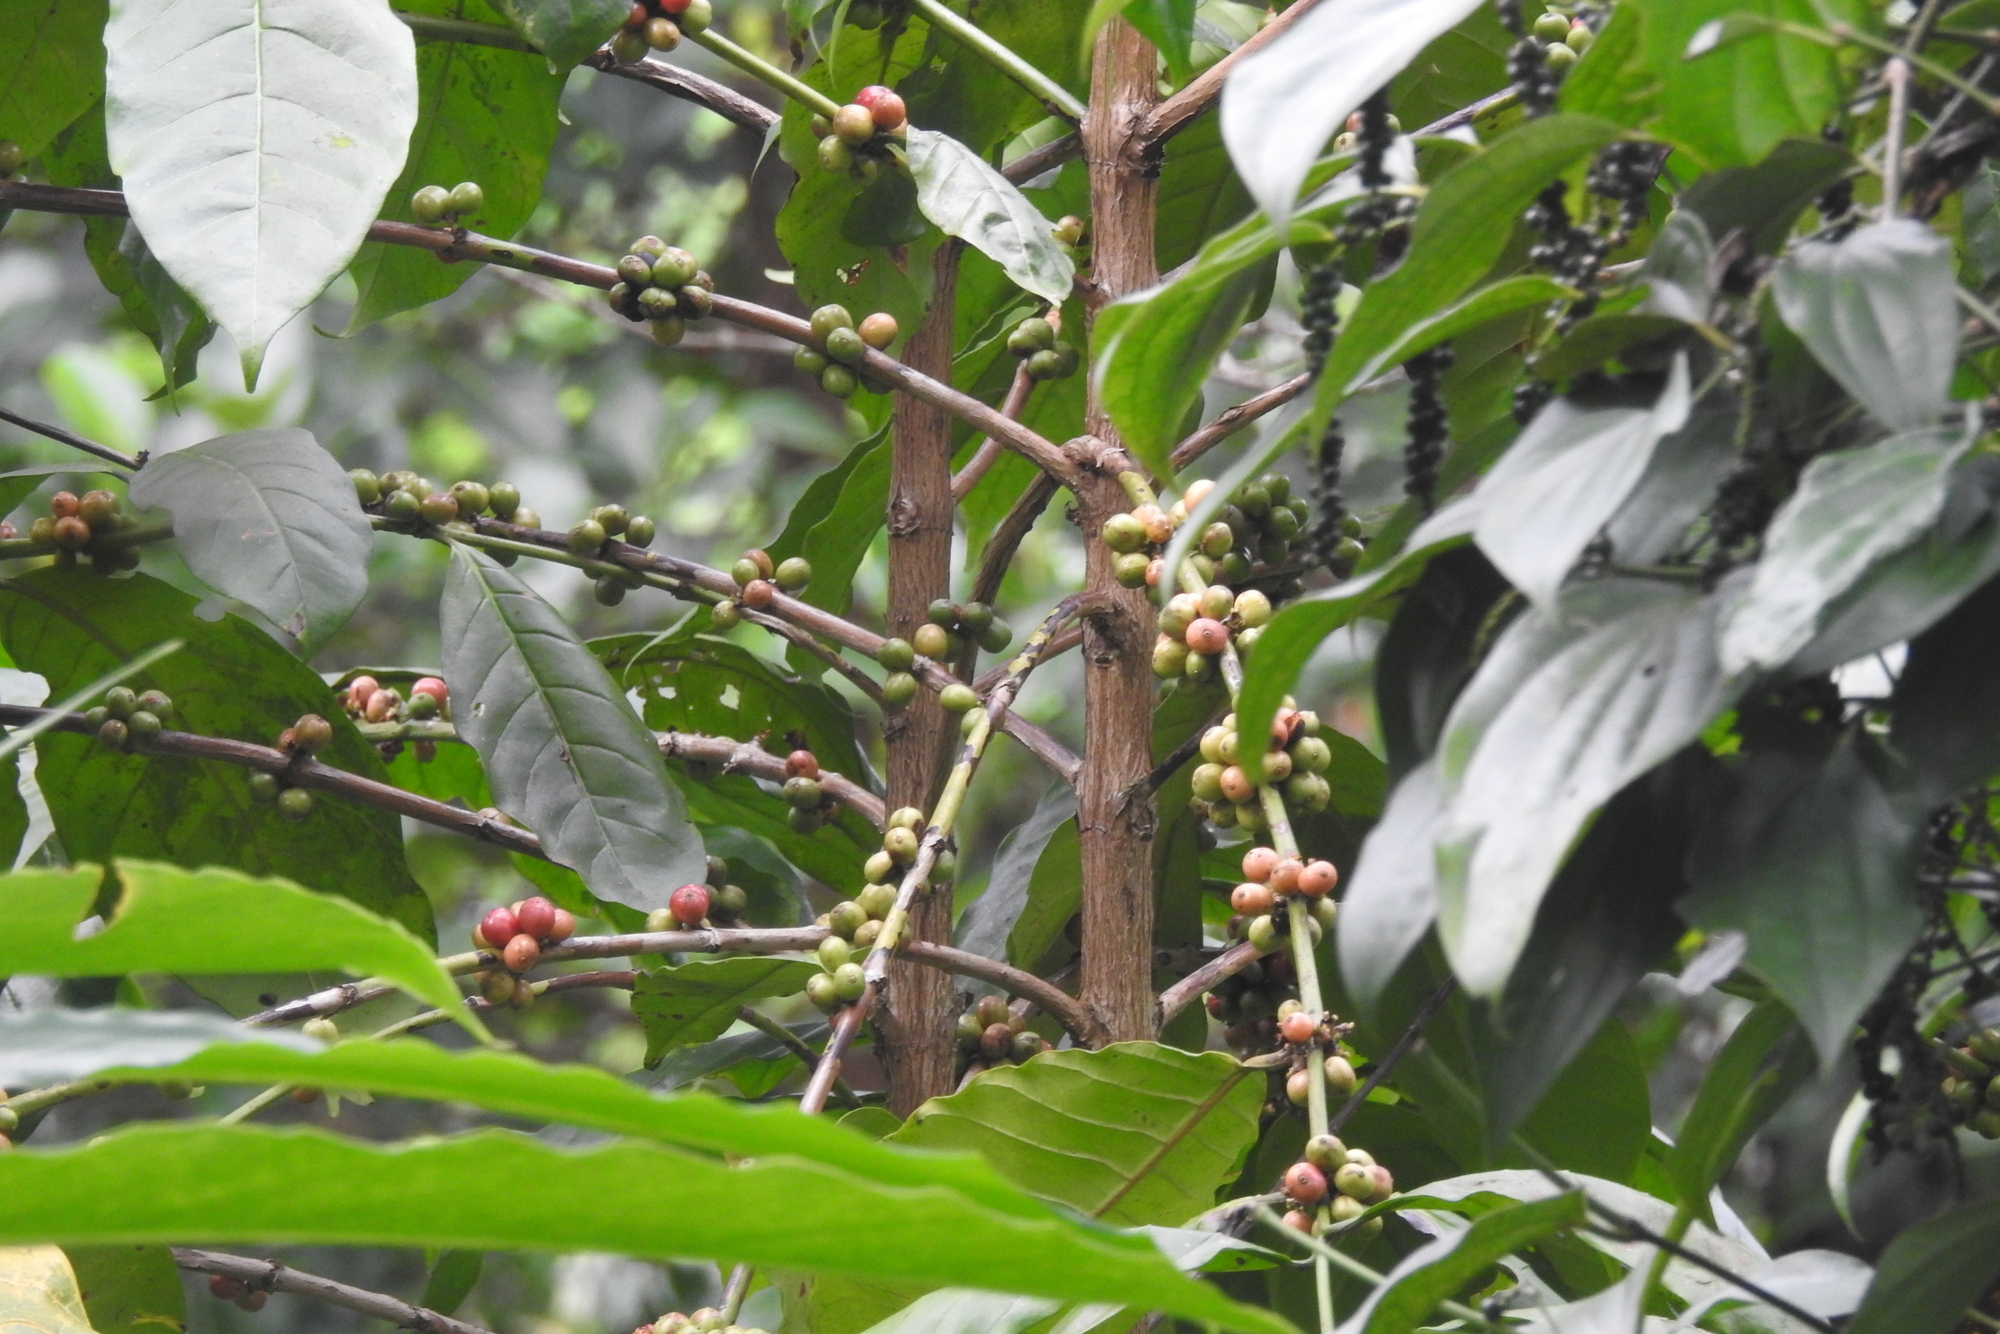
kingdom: Plantae
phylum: Tracheophyta
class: Magnoliopsida
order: Gentianales
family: Rubiaceae
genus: Coffea
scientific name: Coffea arabica
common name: Coffee
